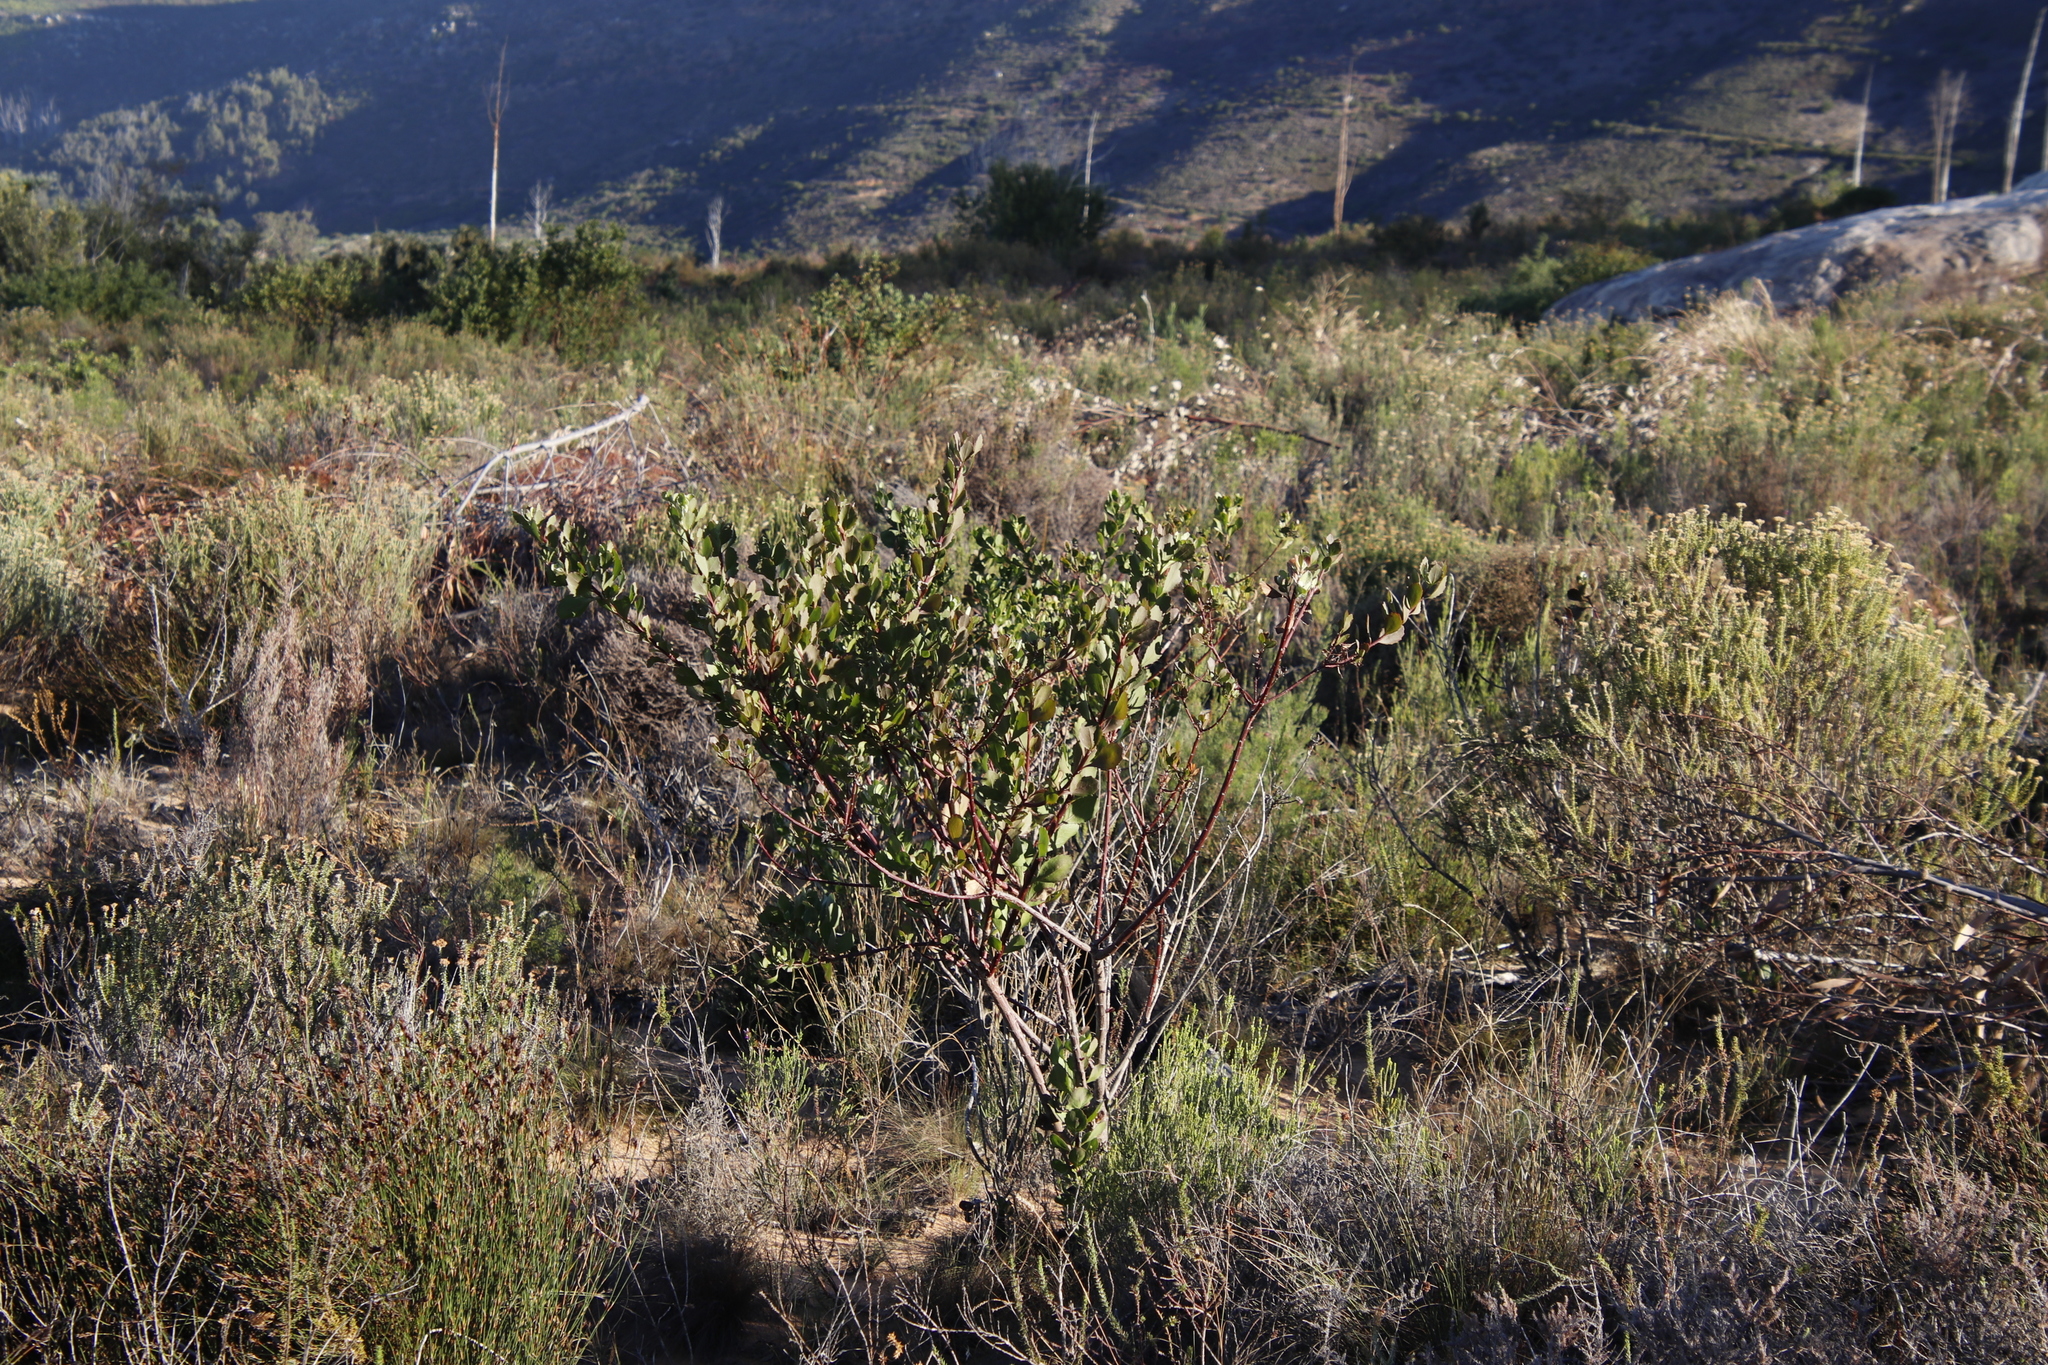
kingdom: Plantae
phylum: Tracheophyta
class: Magnoliopsida
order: Asterales
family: Asteraceae
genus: Osteospermum
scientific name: Osteospermum moniliferum
